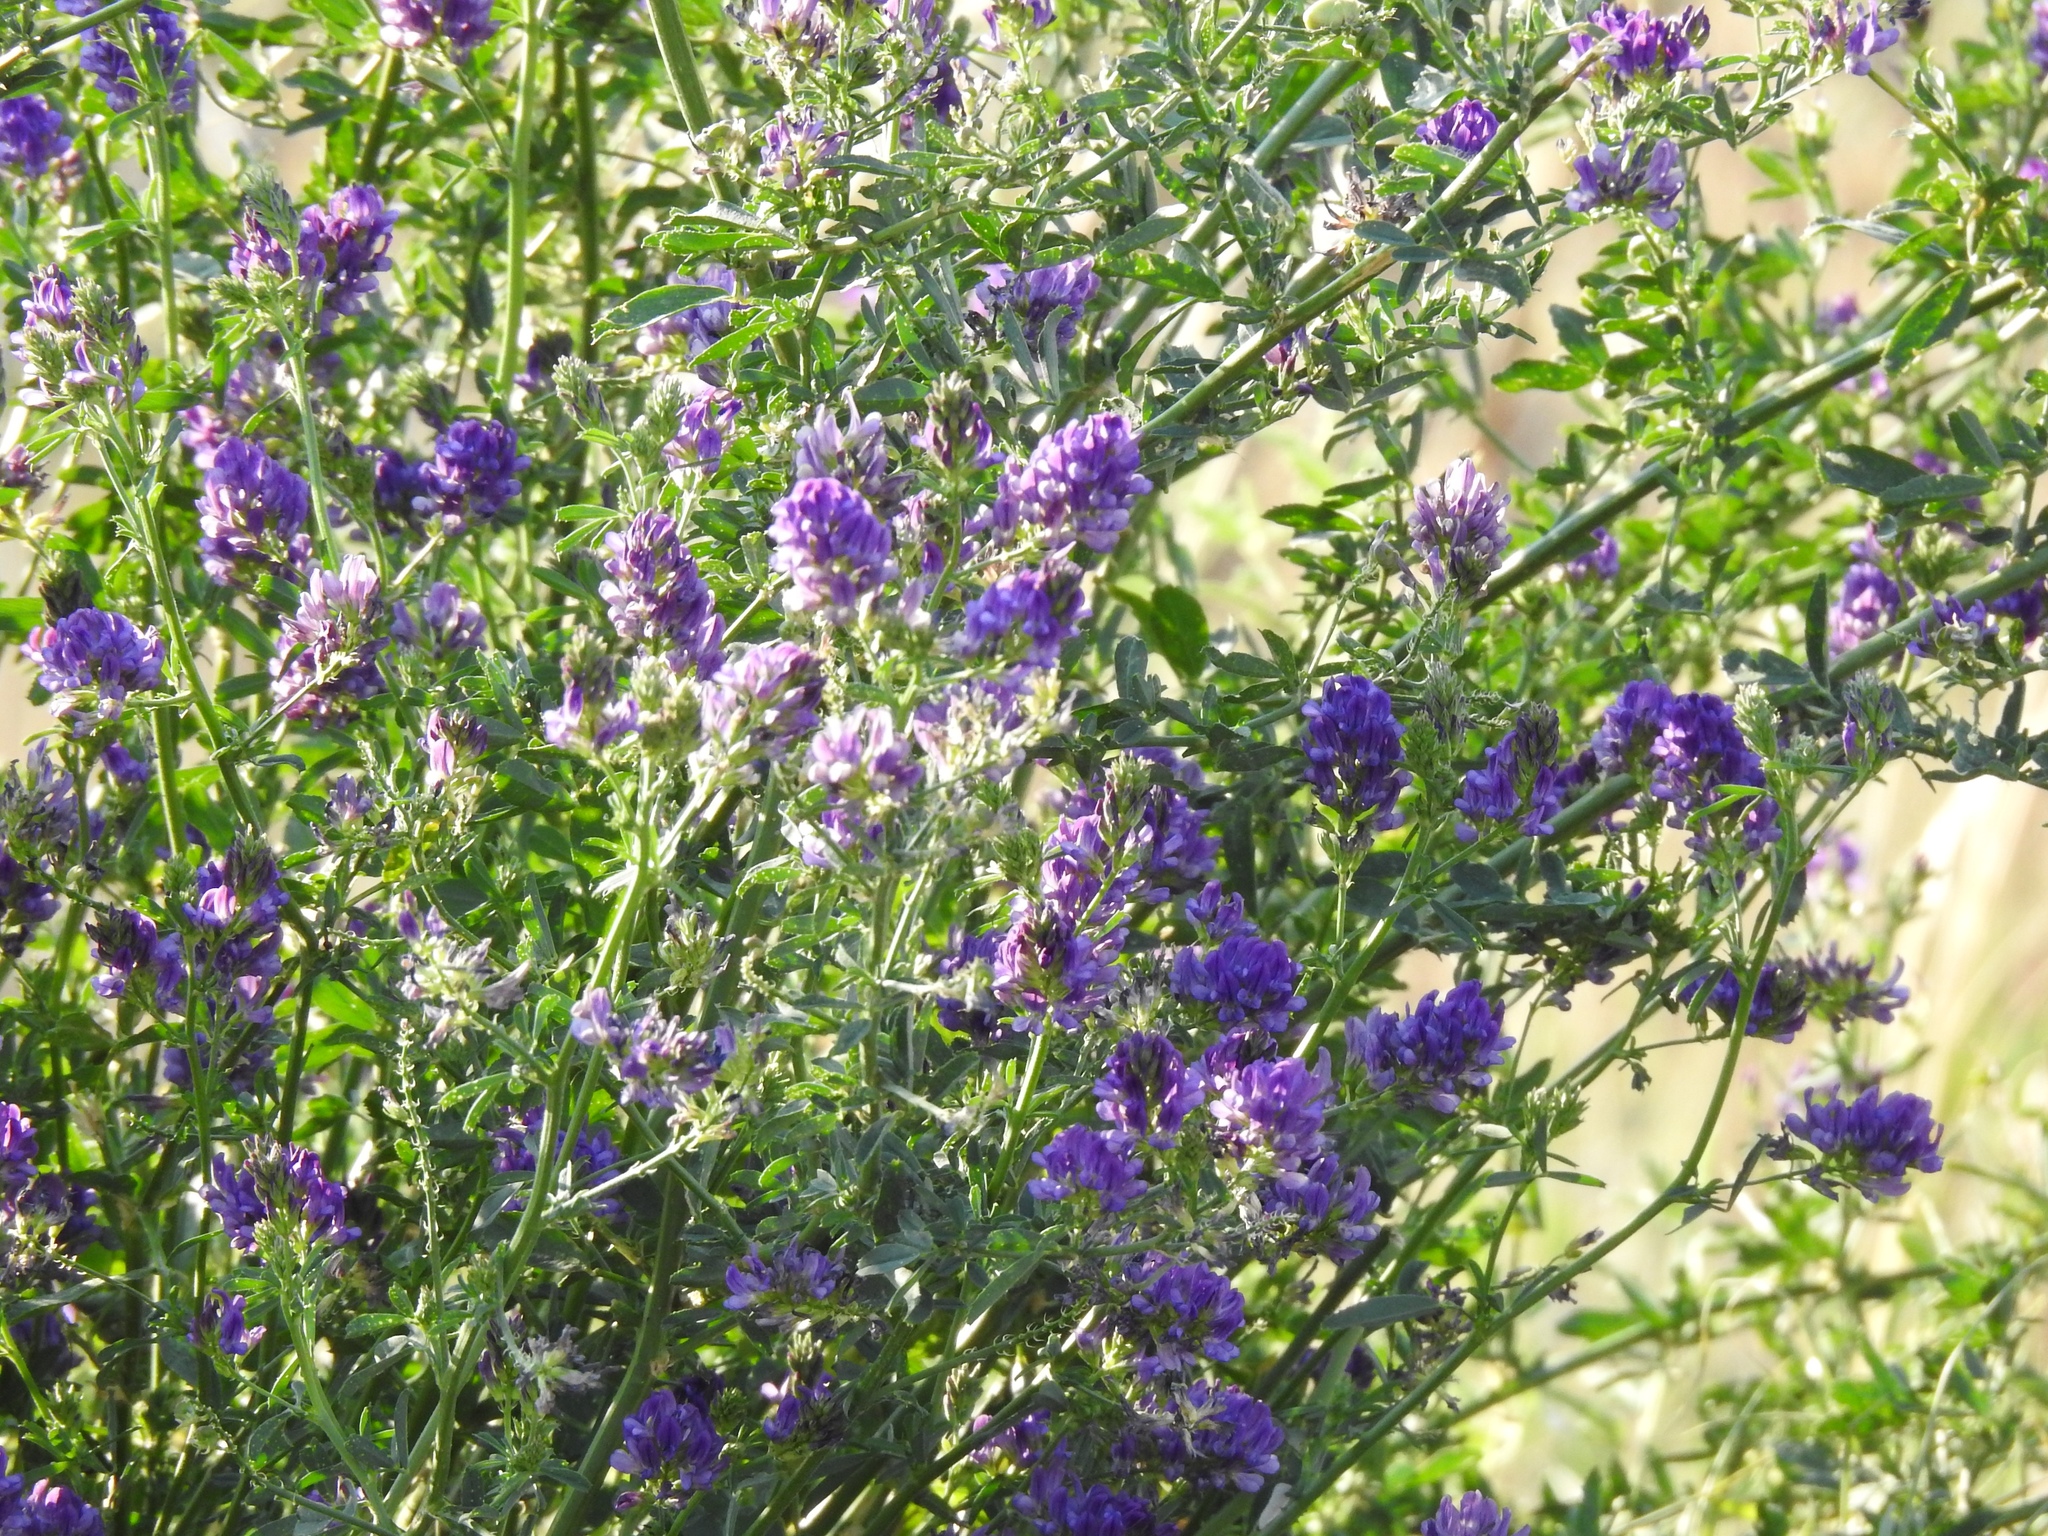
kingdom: Plantae
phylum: Tracheophyta
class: Magnoliopsida
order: Fabales
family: Fabaceae
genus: Medicago
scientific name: Medicago sativa
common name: Alfalfa
